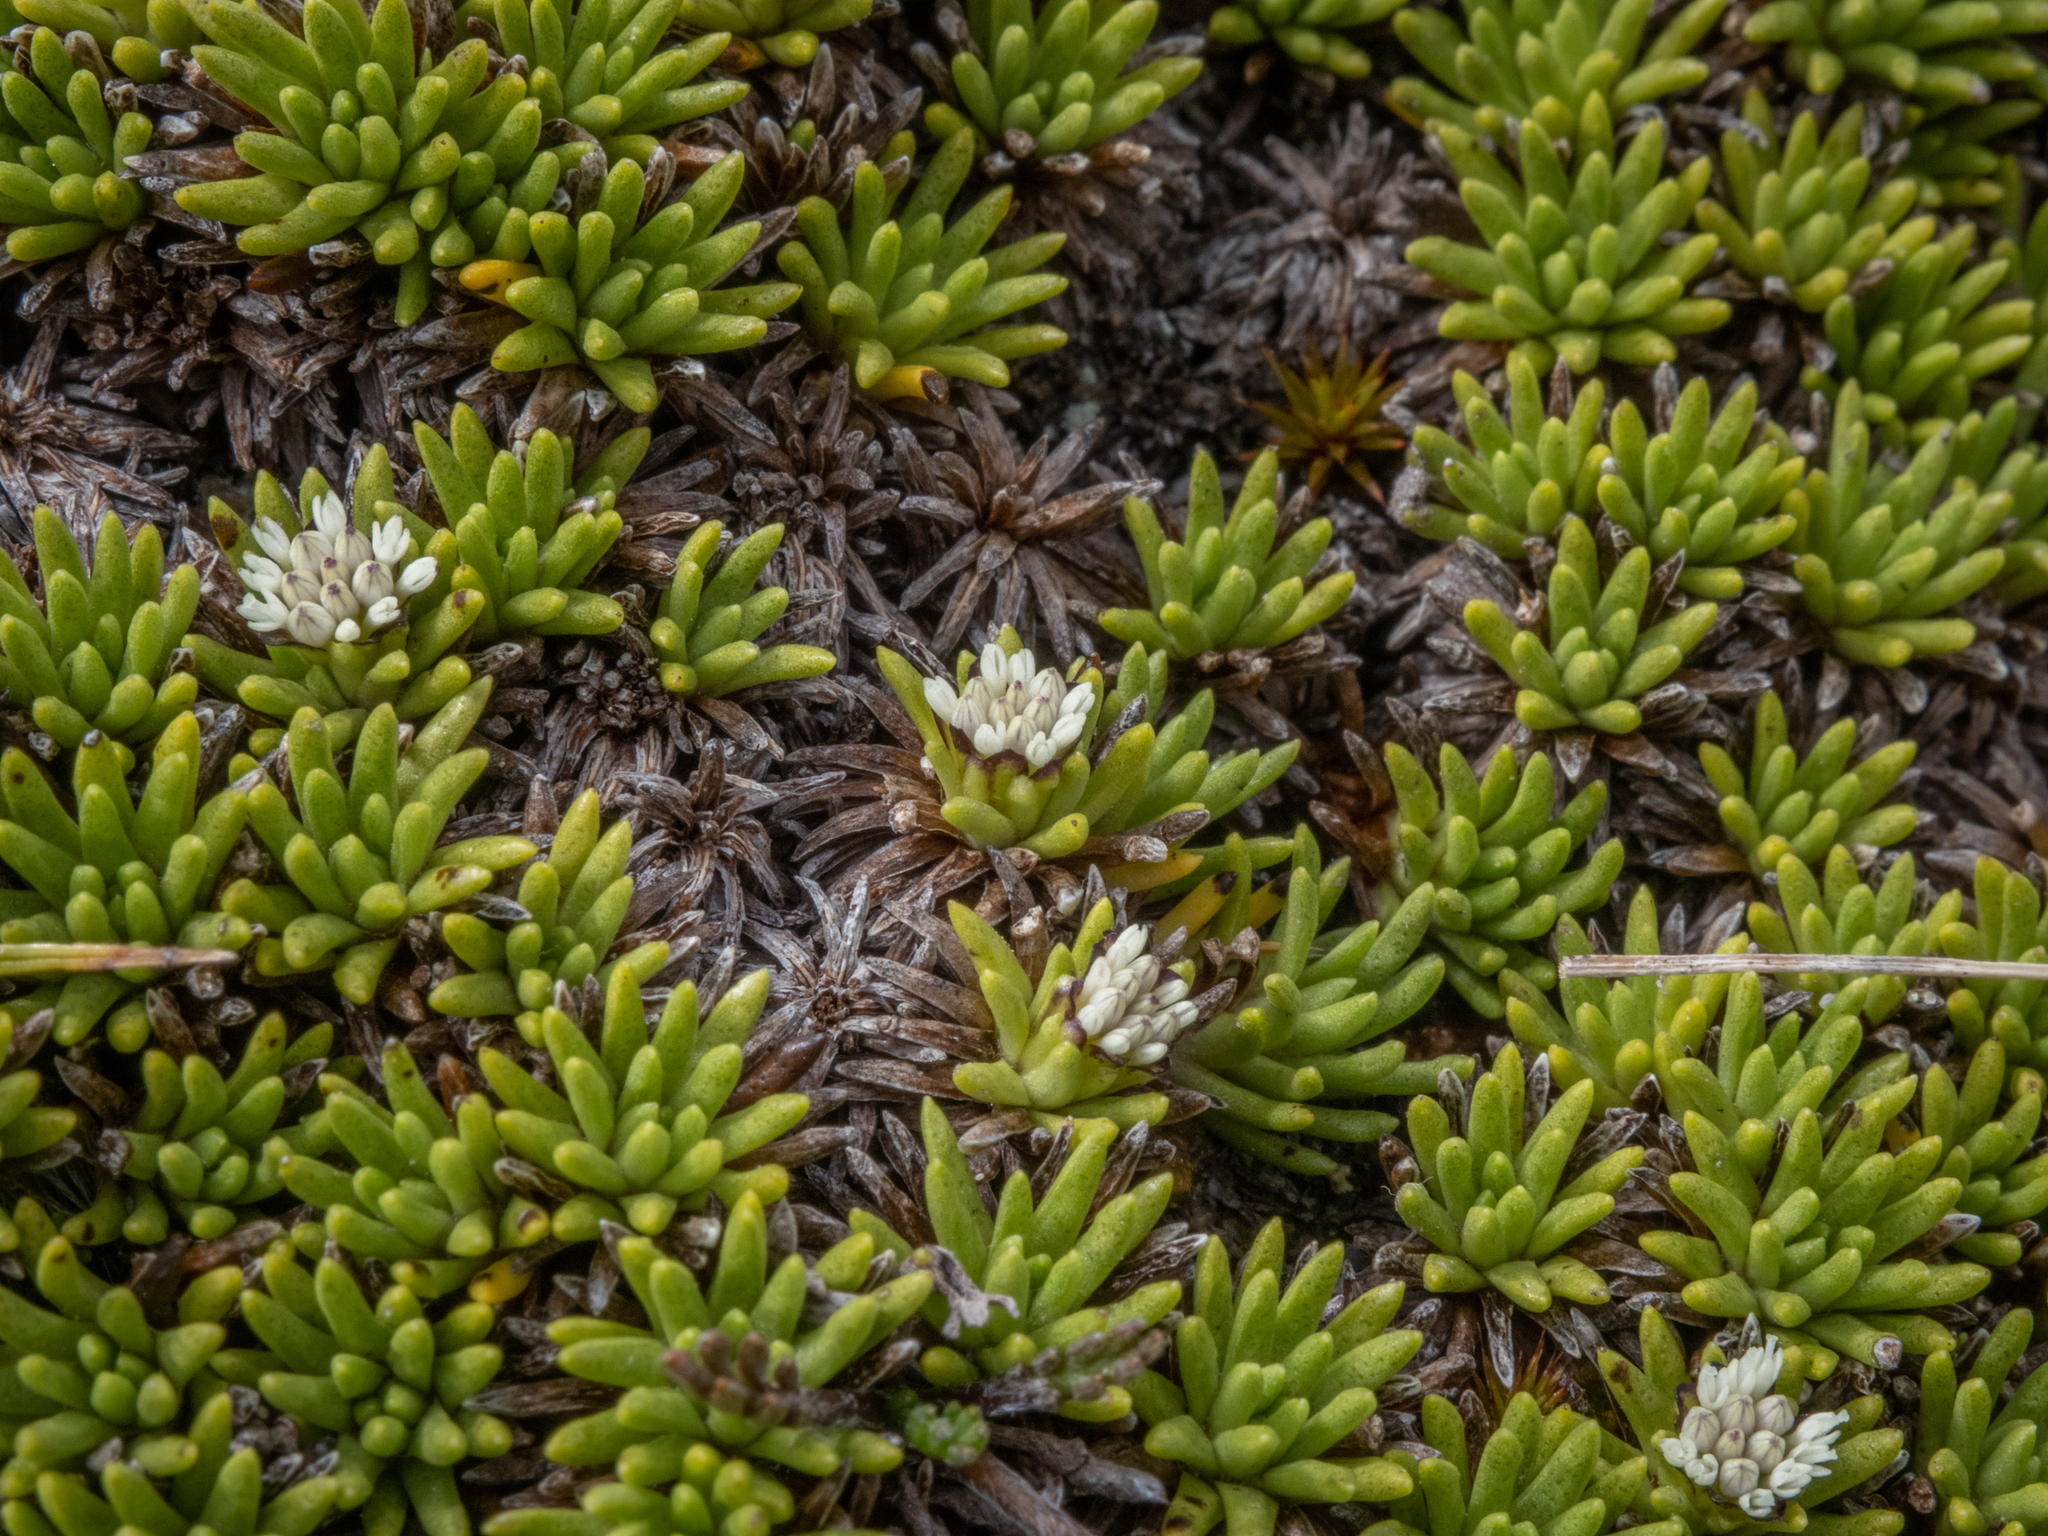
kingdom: Plantae
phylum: Tracheophyta
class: Magnoliopsida
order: Asterales
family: Asteraceae
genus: Abrotanella
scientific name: Abrotanella inconspicua
